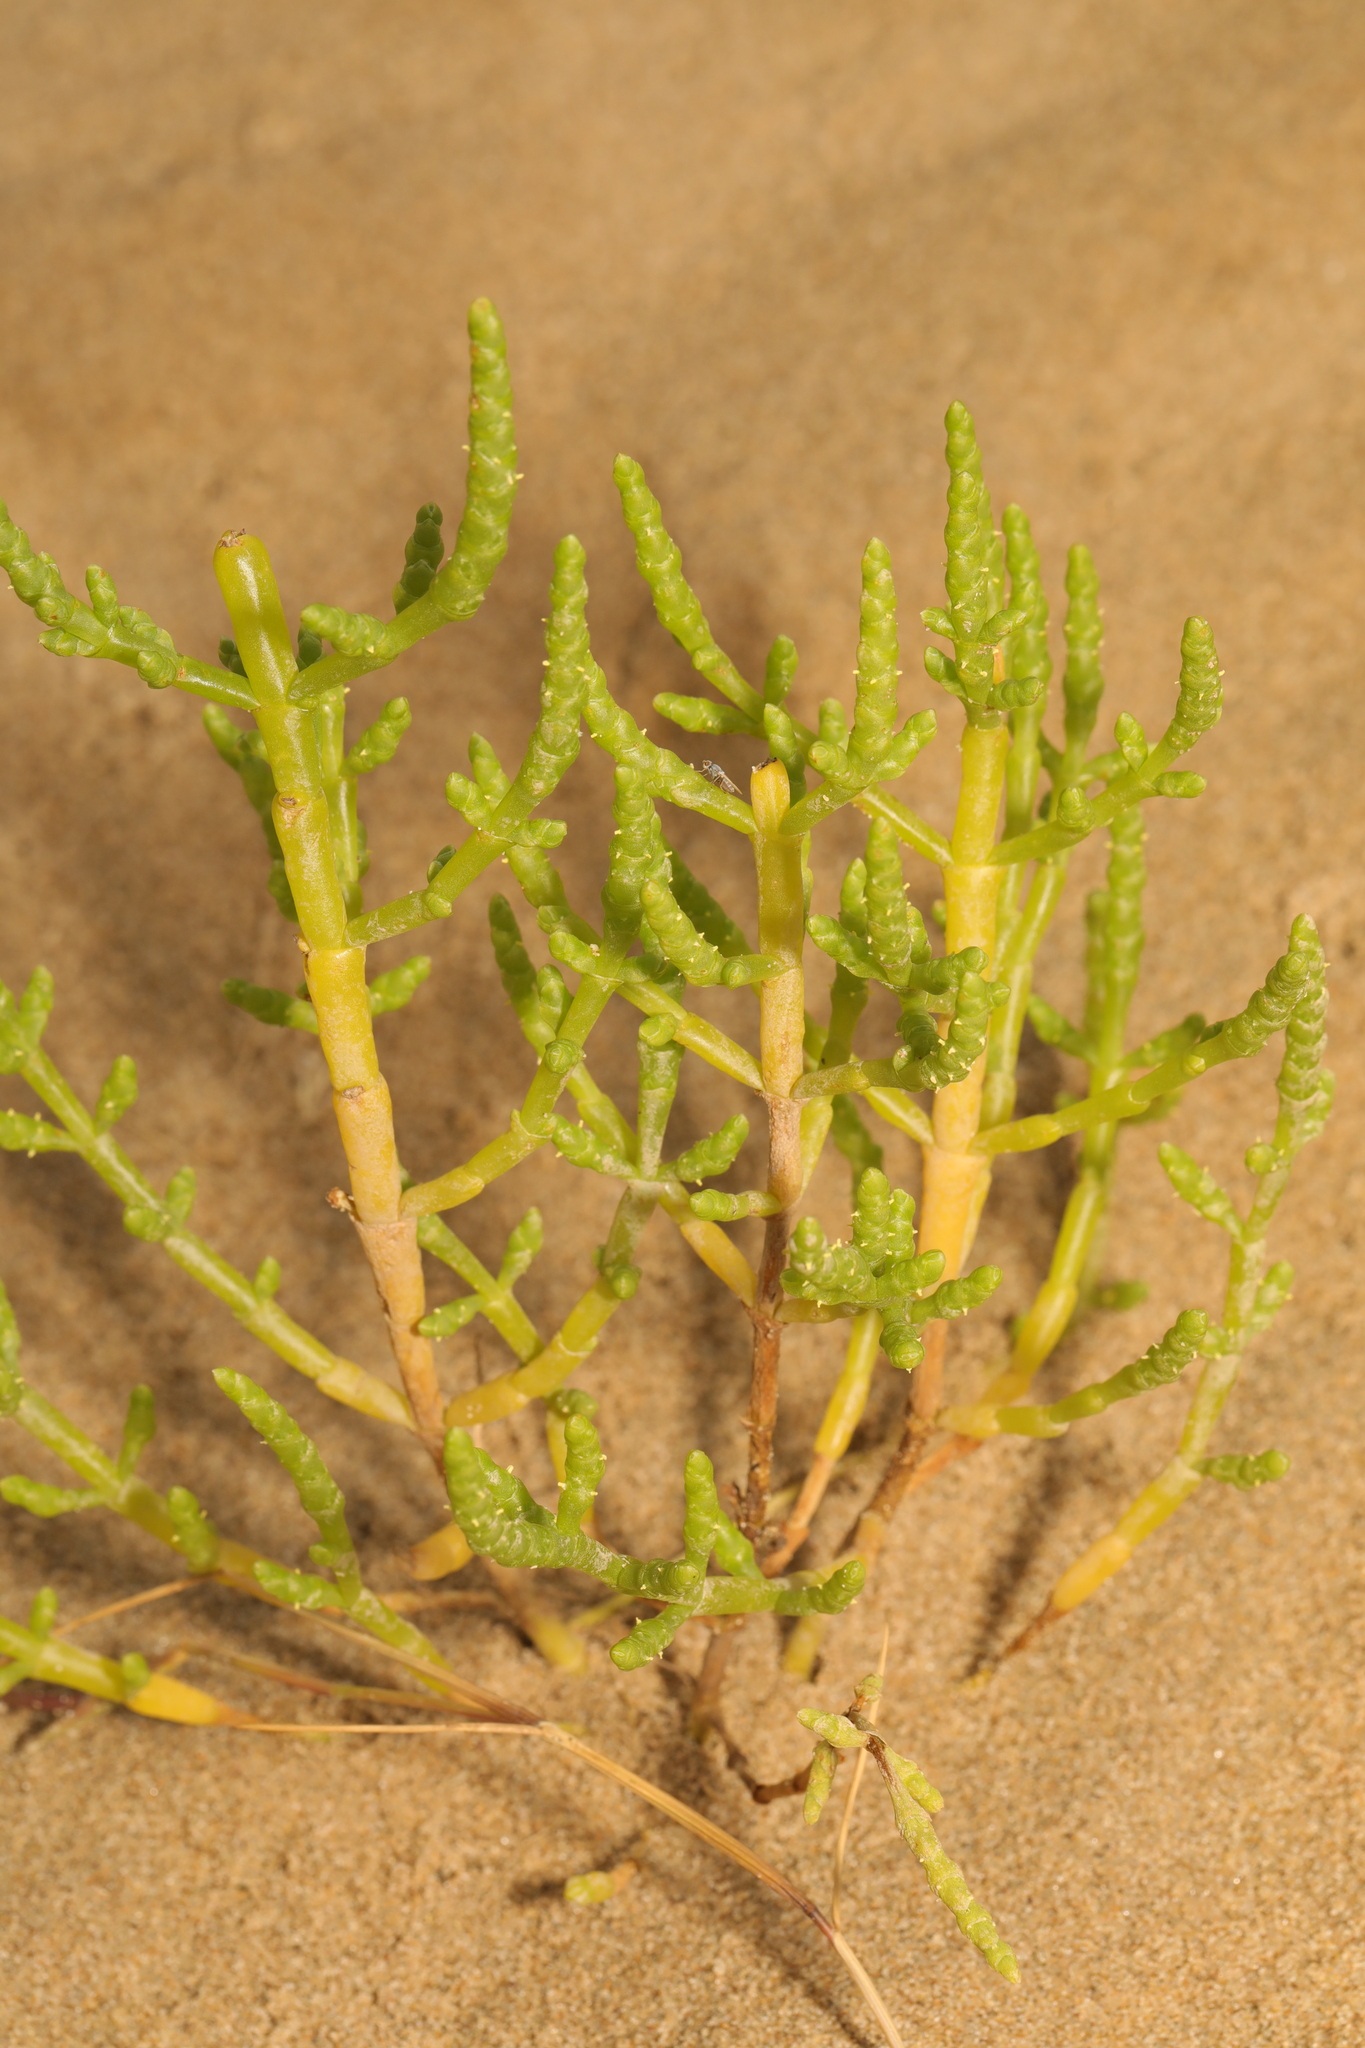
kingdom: Plantae
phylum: Tracheophyta
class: Magnoliopsida
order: Caryophyllales
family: Amaranthaceae
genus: Salicornia
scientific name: Salicornia europaea
